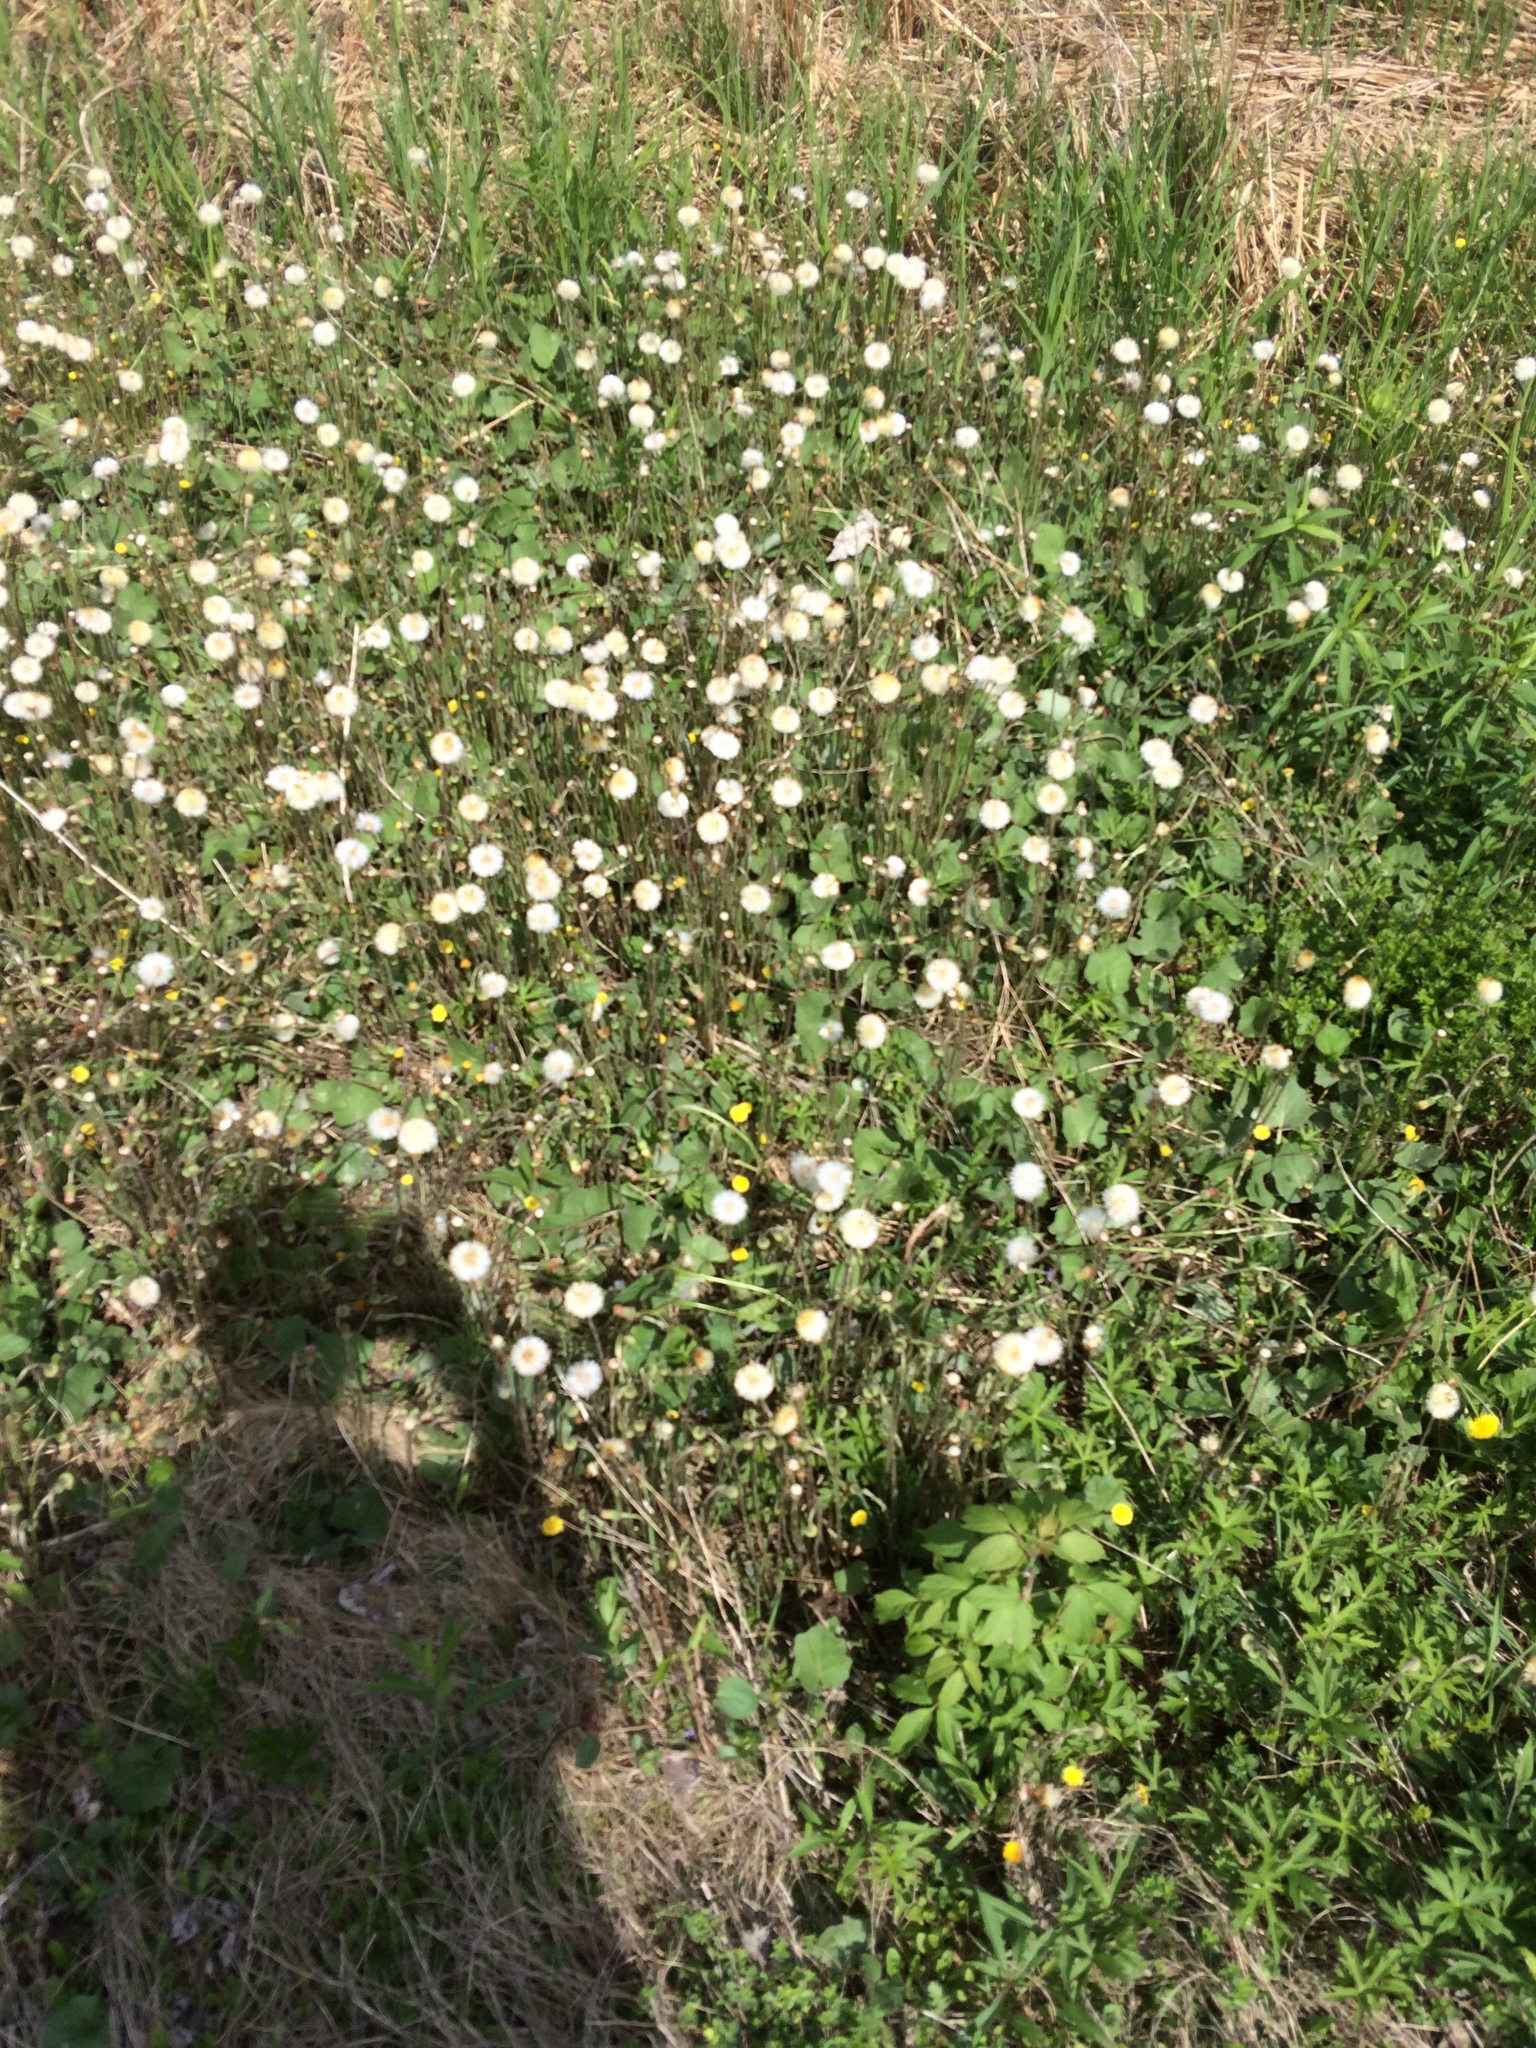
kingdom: Plantae
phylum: Tracheophyta
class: Magnoliopsida
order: Asterales
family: Asteraceae
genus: Tussilago
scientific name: Tussilago farfara
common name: Coltsfoot
